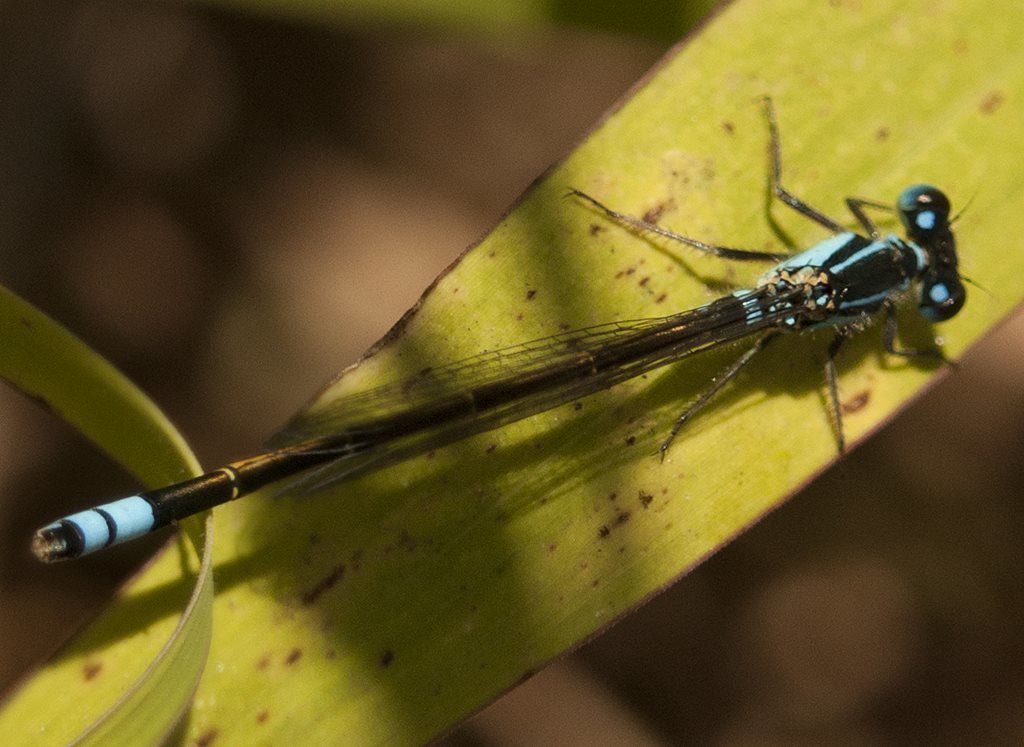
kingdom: Animalia
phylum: Arthropoda
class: Insecta
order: Odonata
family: Coenagrionidae
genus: Ischnura
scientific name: Ischnura heterosticta
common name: Common bluetail
